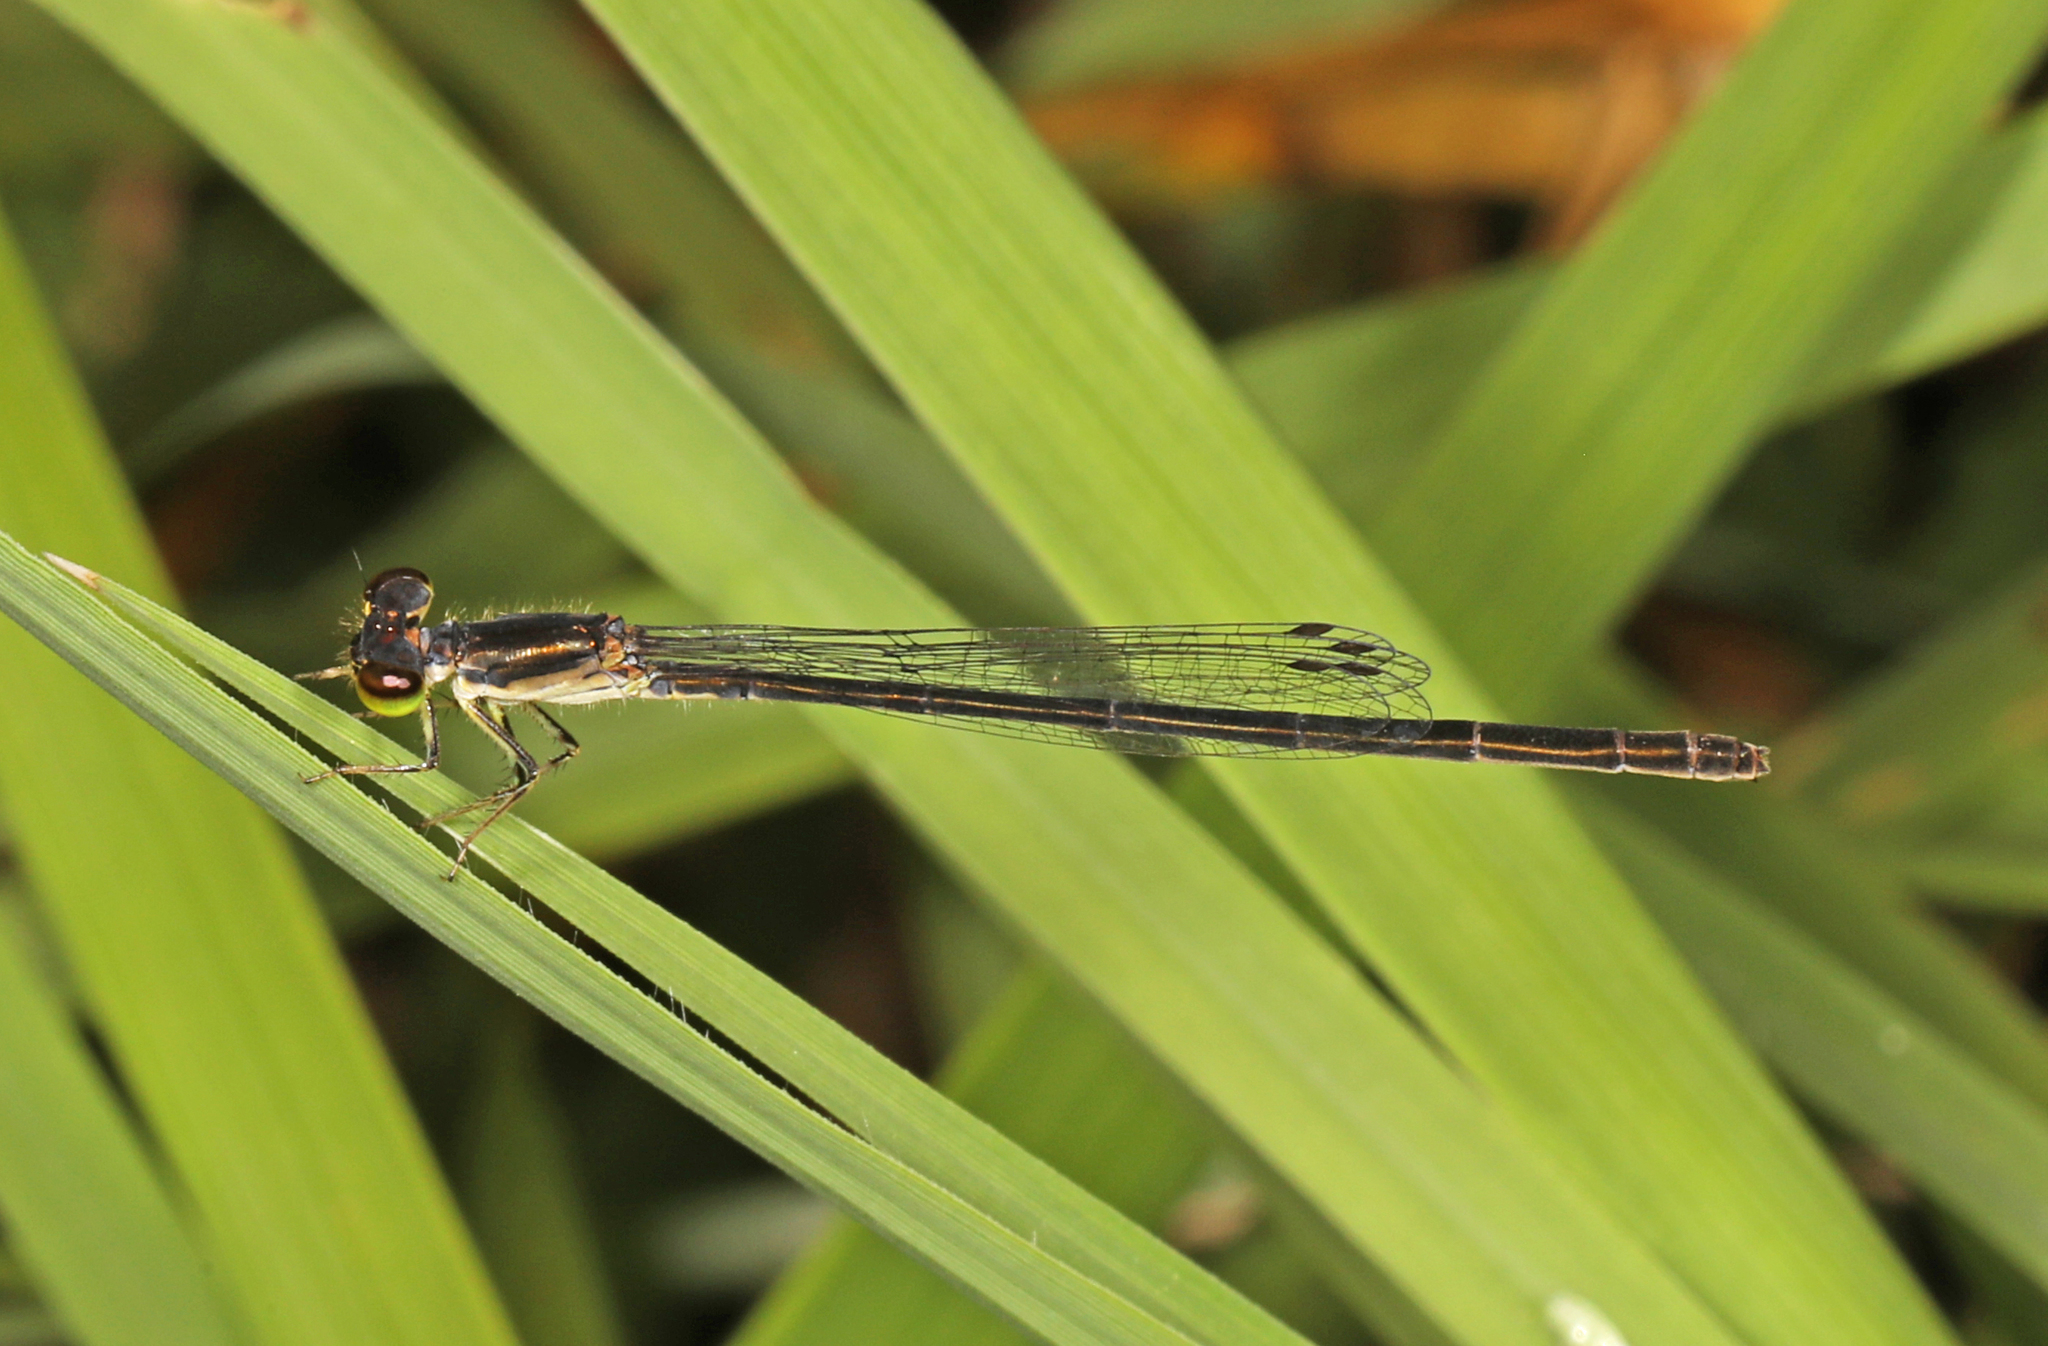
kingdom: Animalia
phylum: Arthropoda
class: Insecta
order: Odonata
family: Coenagrionidae
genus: Ischnura
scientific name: Ischnura posita
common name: Fragile forktail
